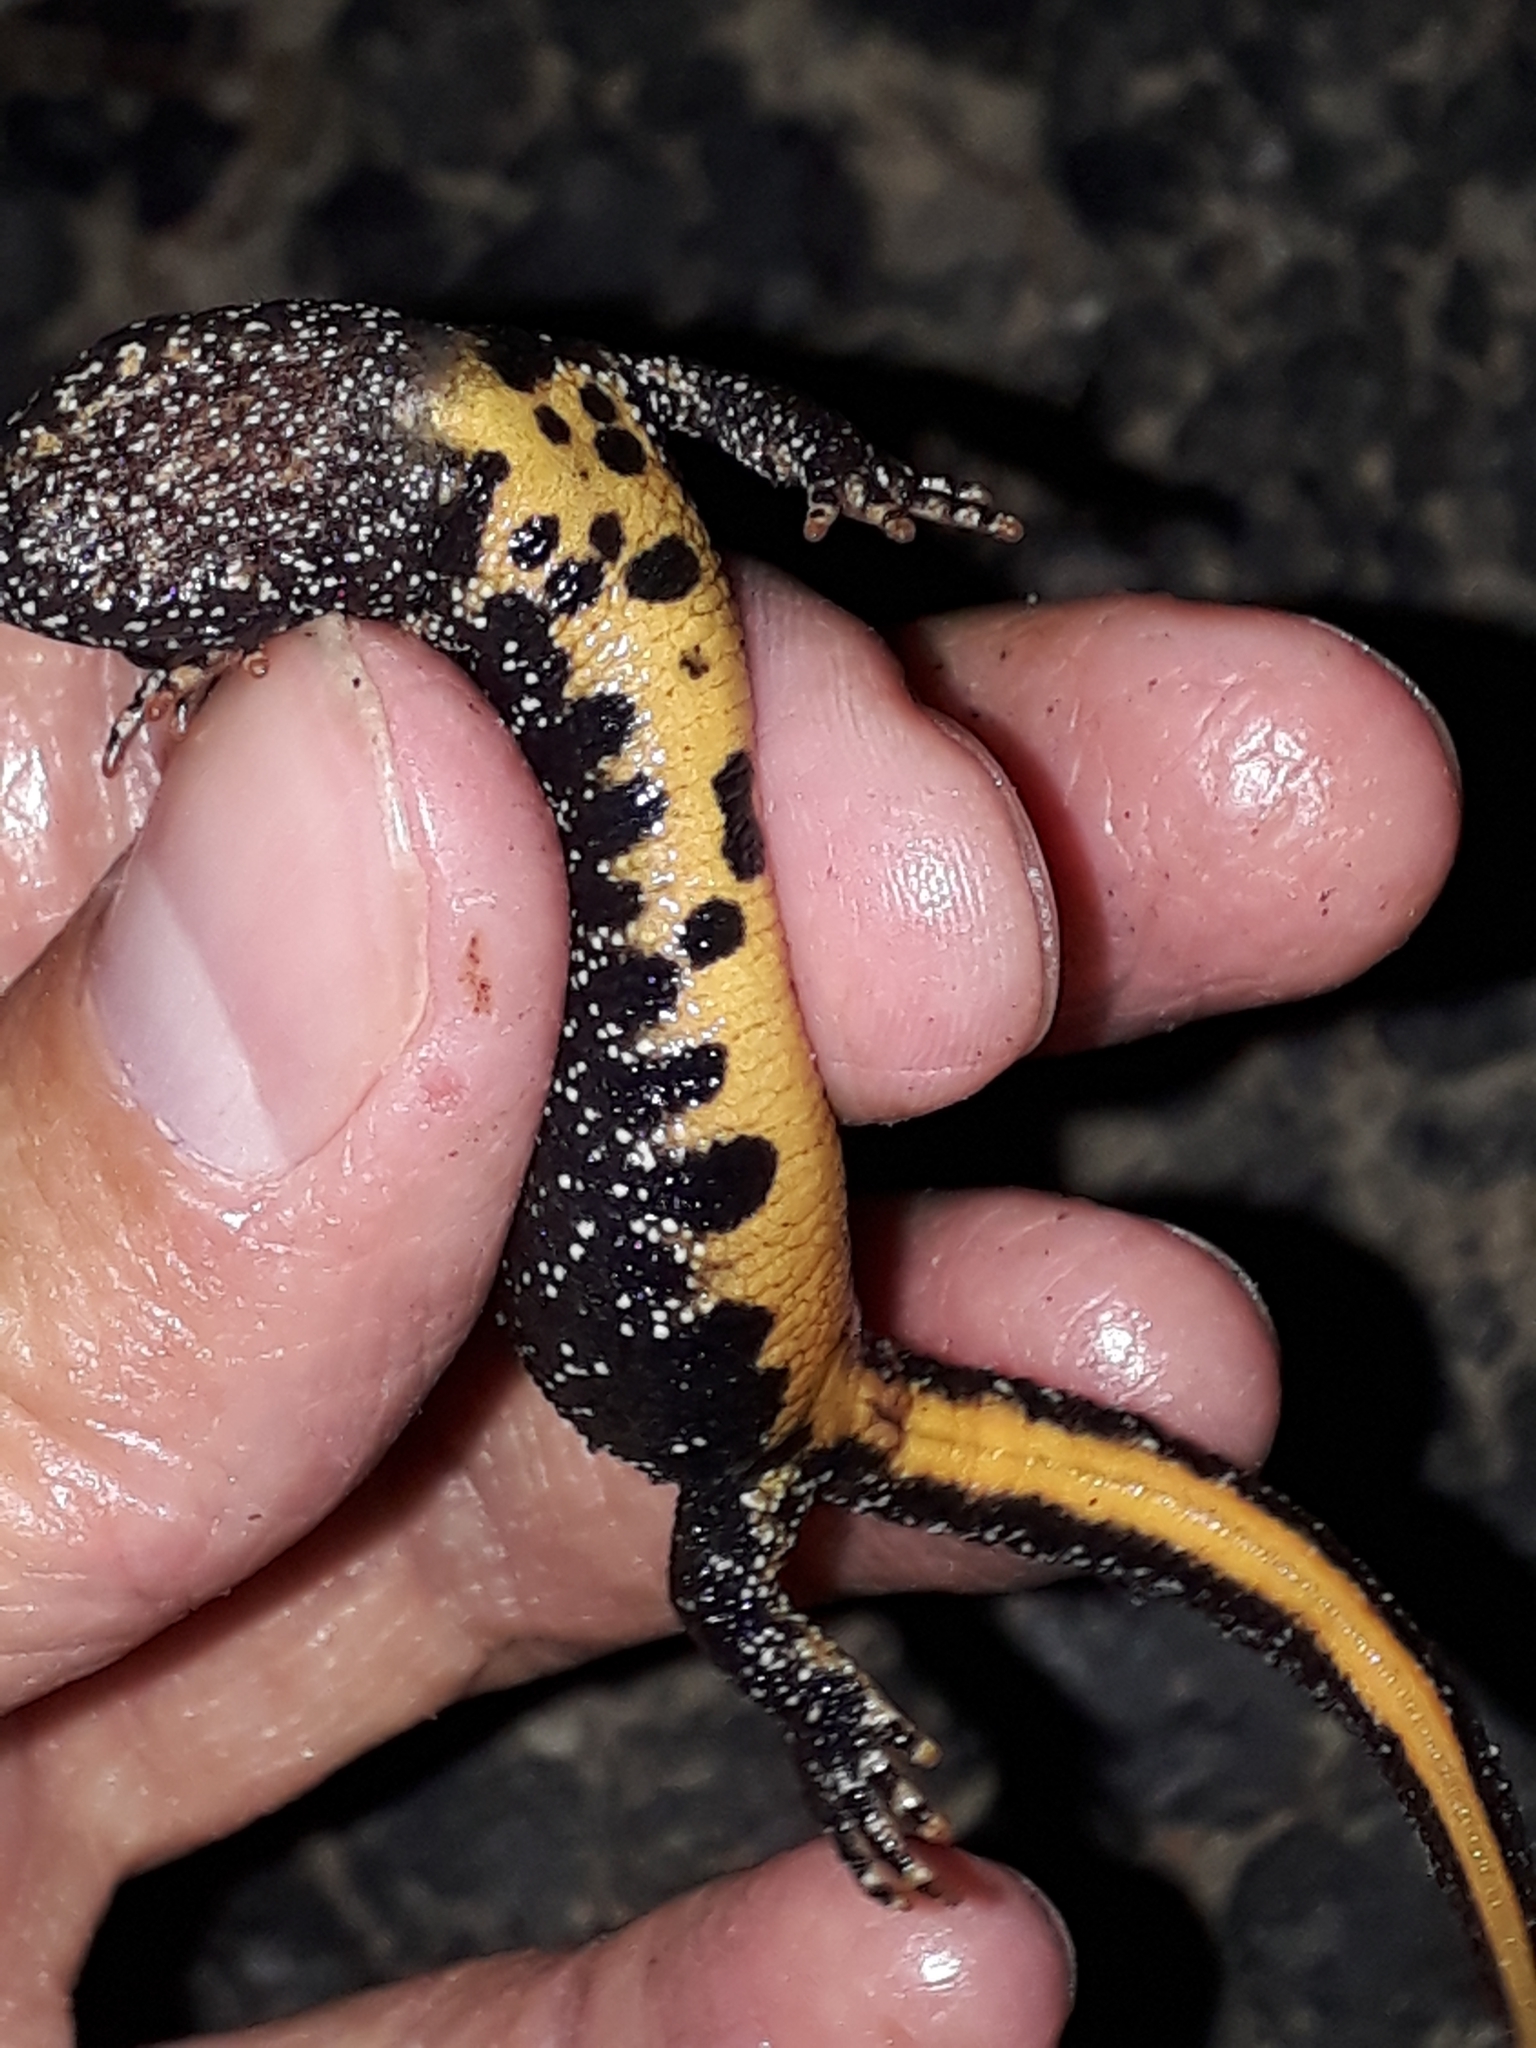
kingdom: Animalia
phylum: Chordata
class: Amphibia
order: Caudata
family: Salamandridae
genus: Triturus
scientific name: Triturus cristatus
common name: Crested newt
